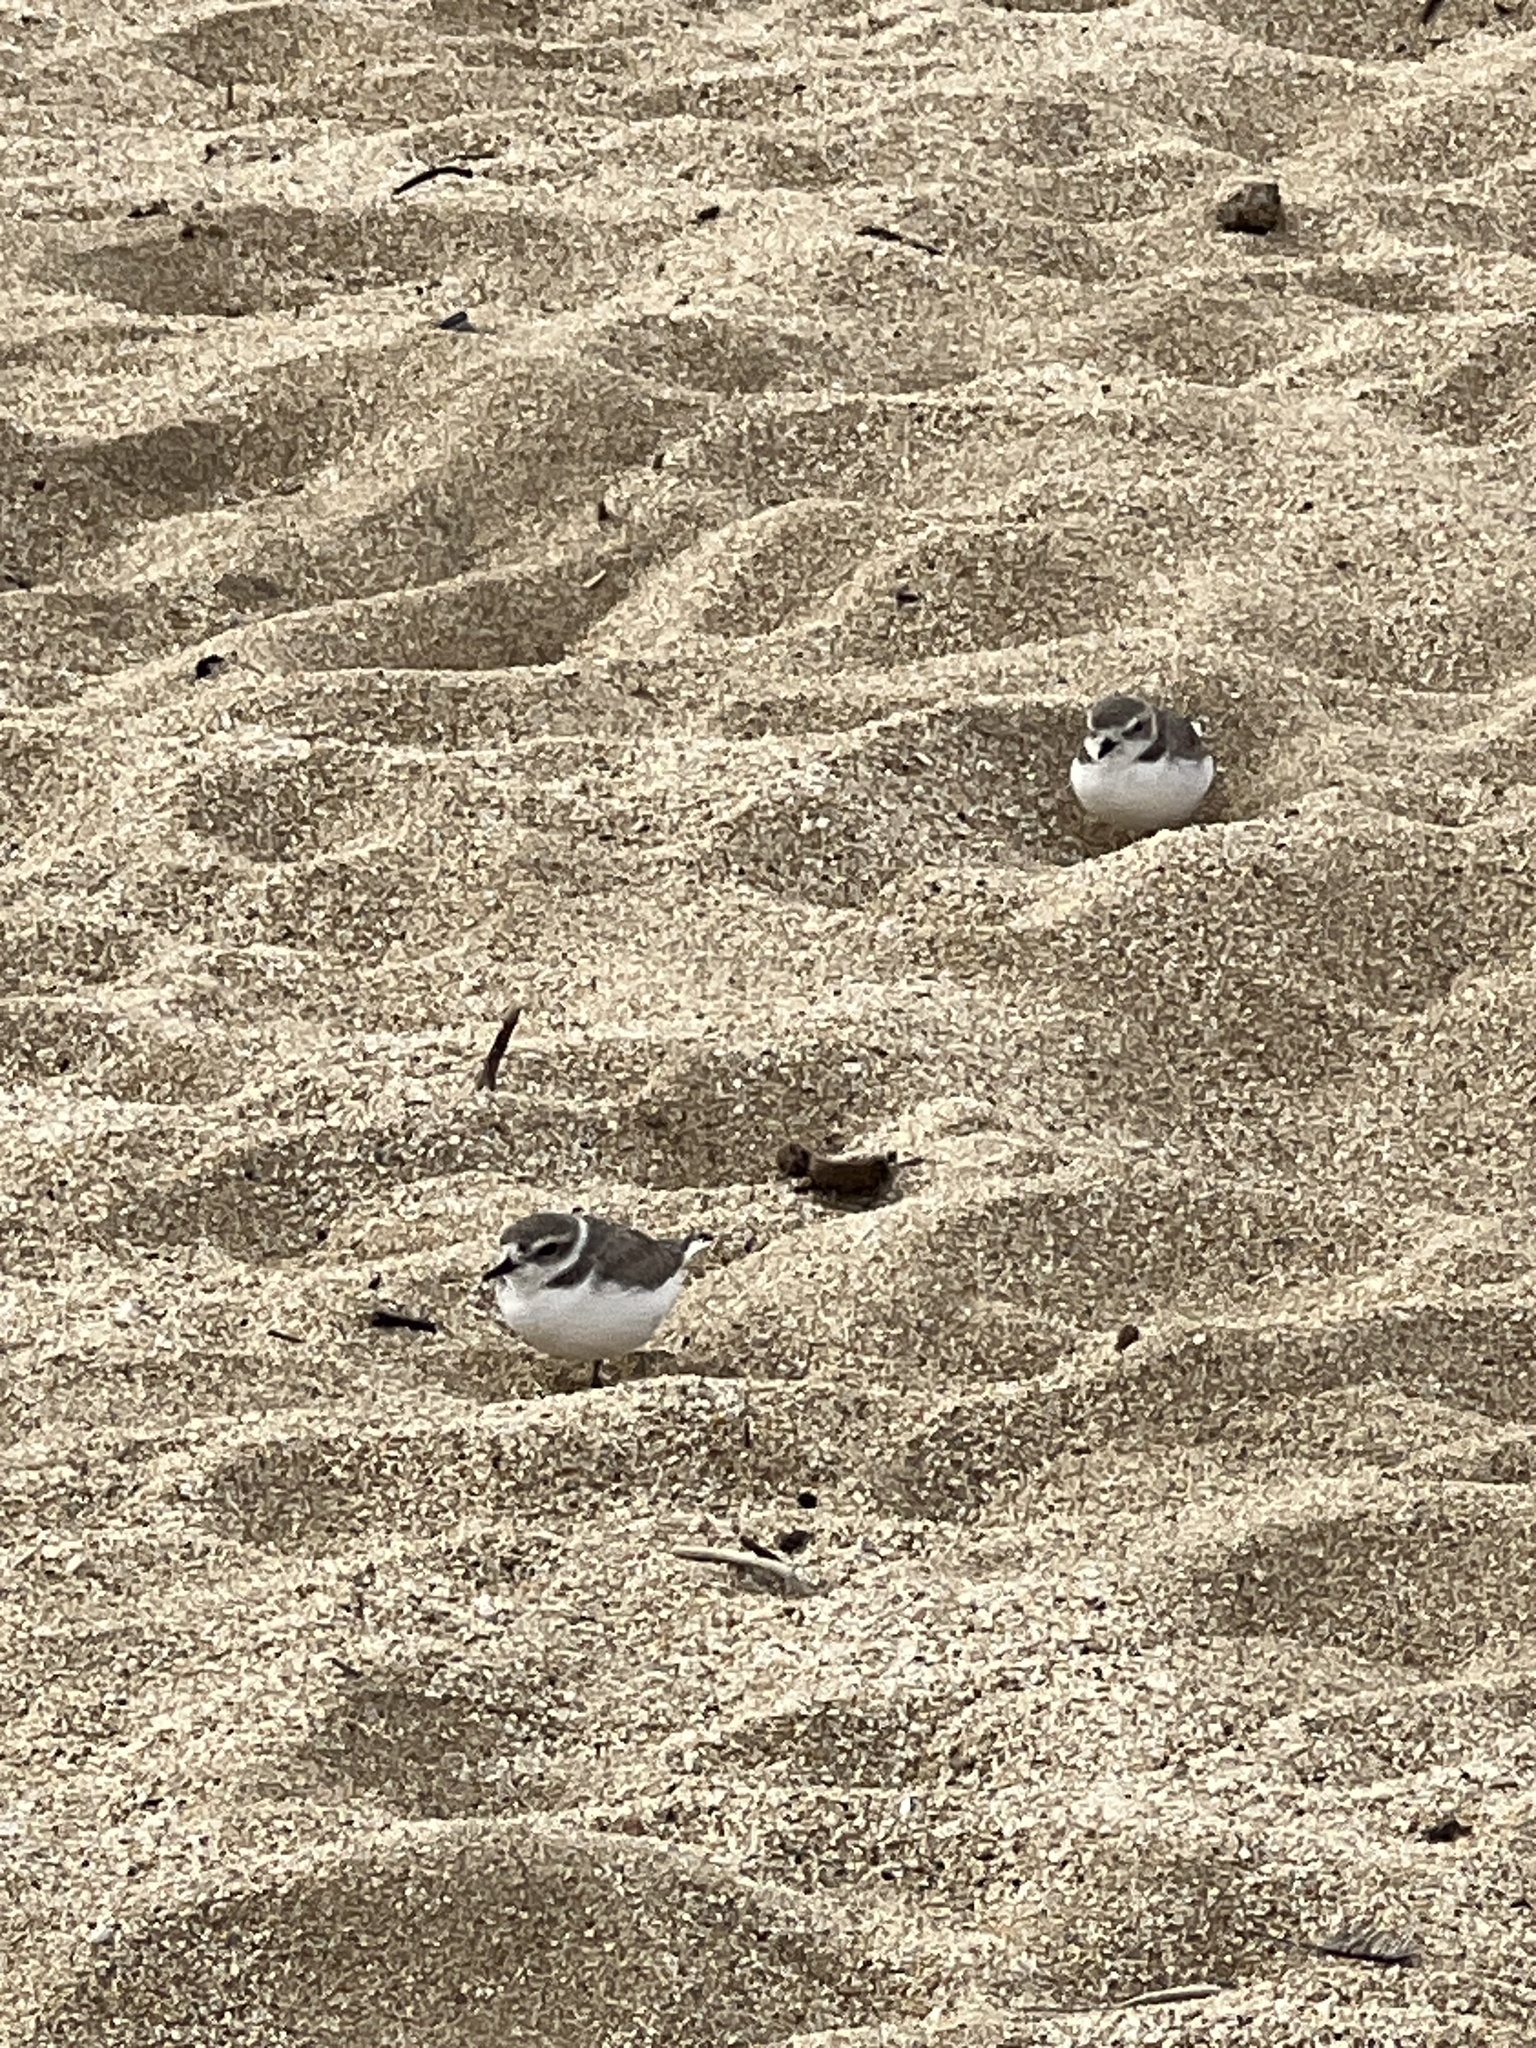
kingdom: Animalia
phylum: Chordata
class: Aves
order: Charadriiformes
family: Charadriidae
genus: Anarhynchus
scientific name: Anarhynchus
